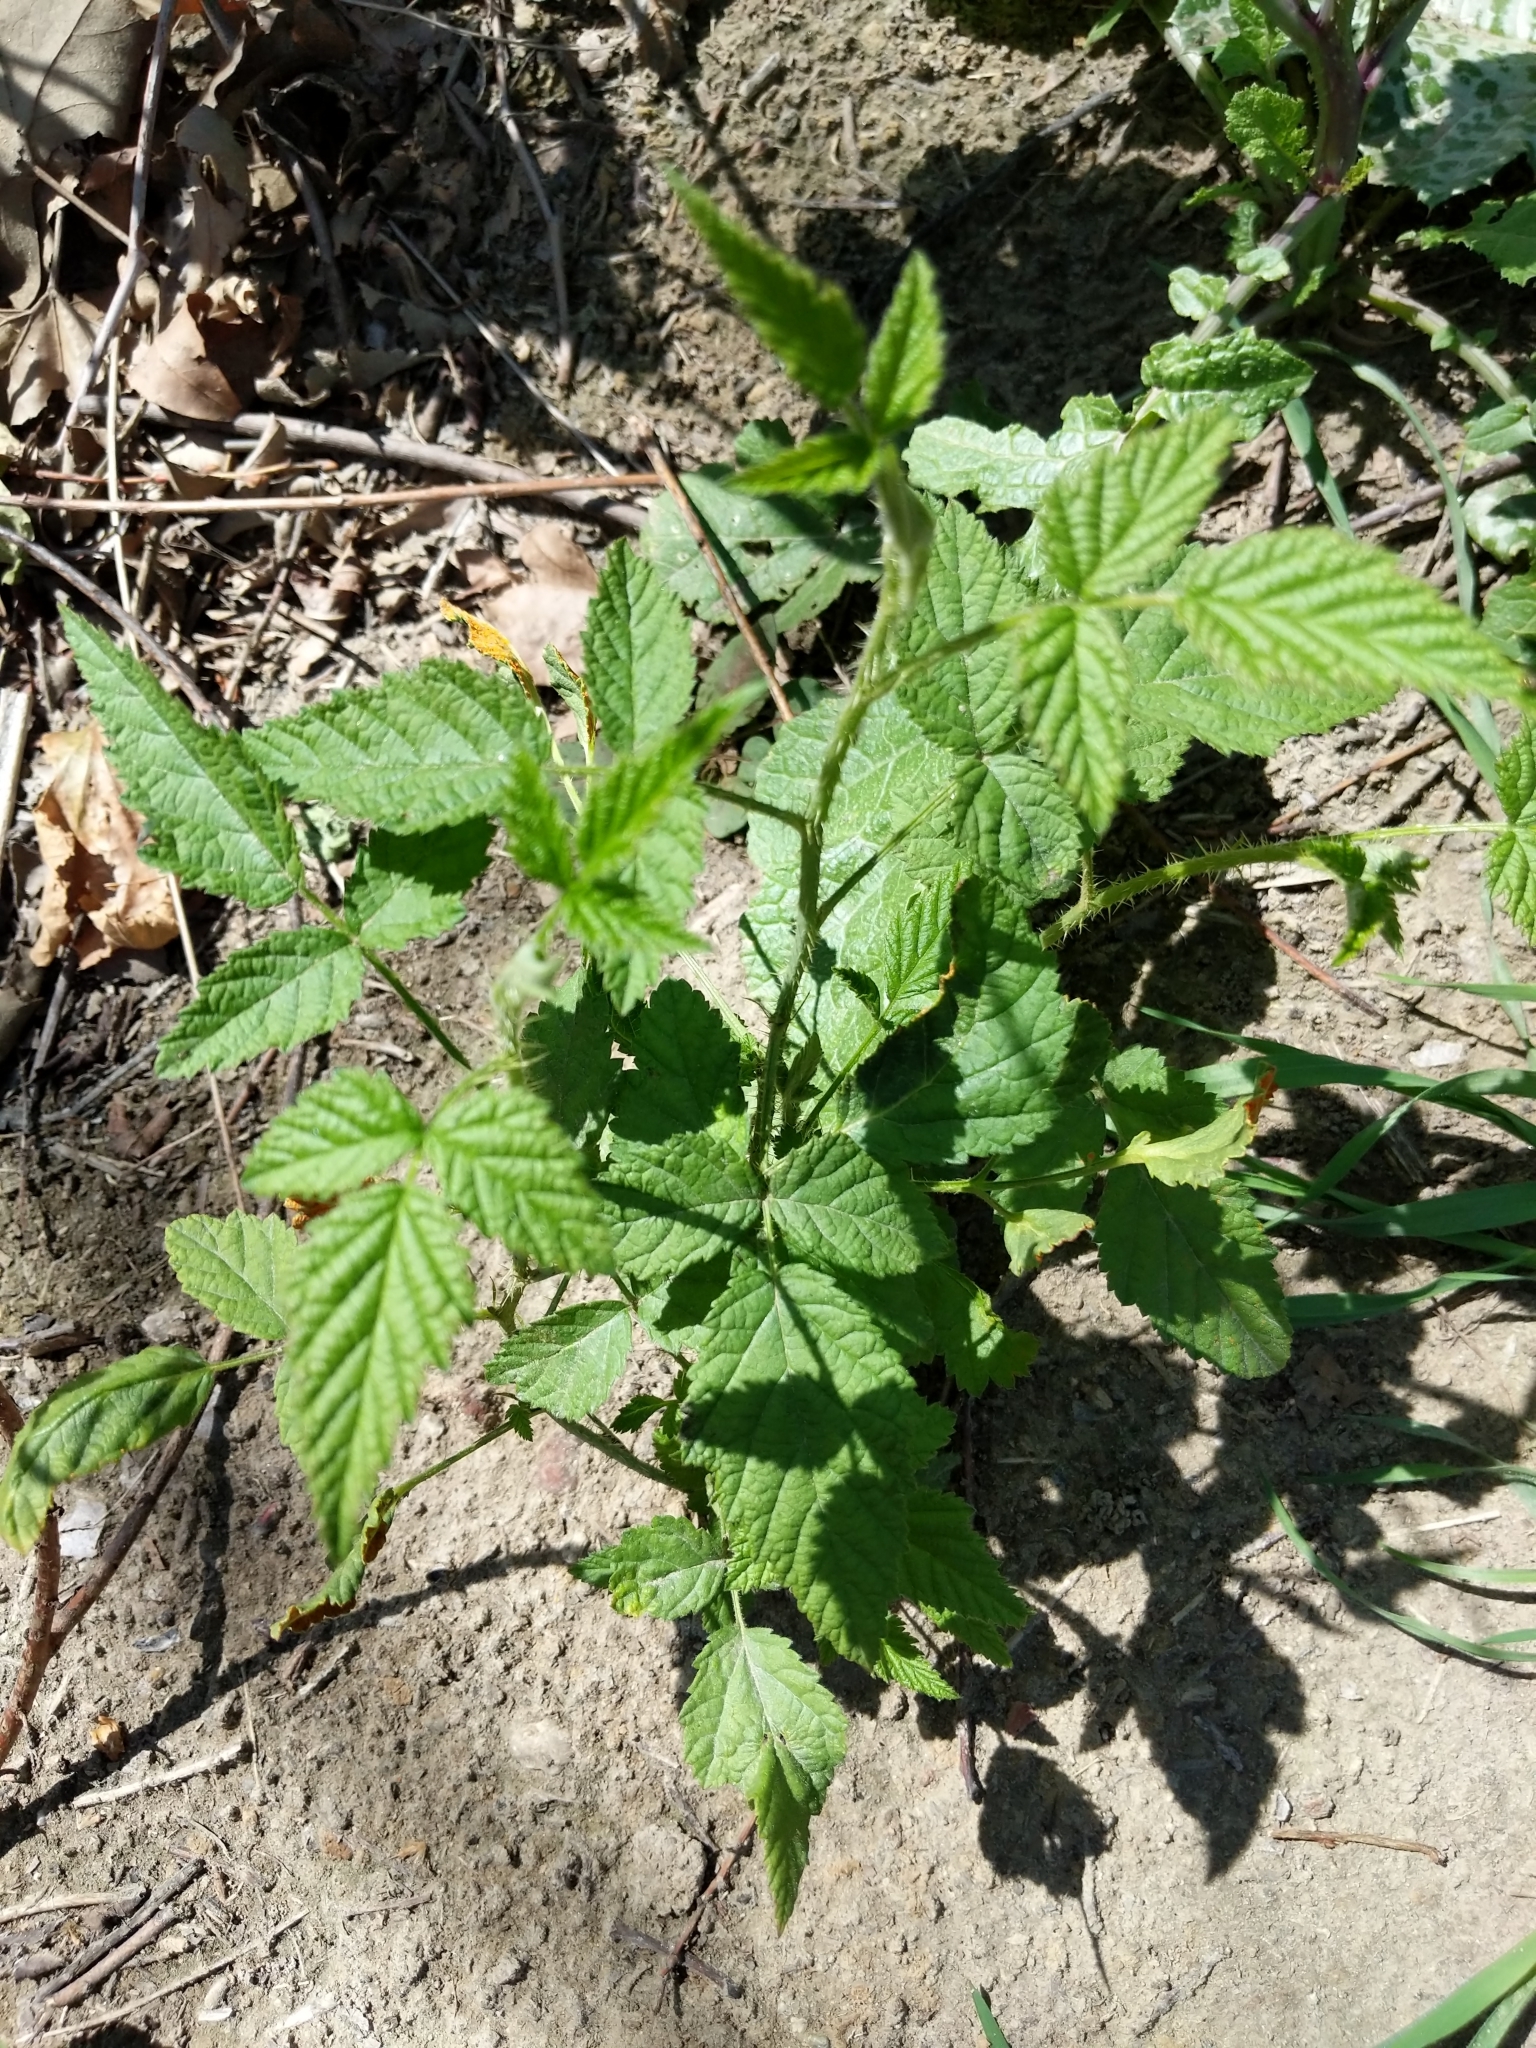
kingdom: Plantae
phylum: Tracheophyta
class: Magnoliopsida
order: Rosales
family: Rosaceae
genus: Rubus
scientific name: Rubus ursinus
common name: Pacific blackberry
